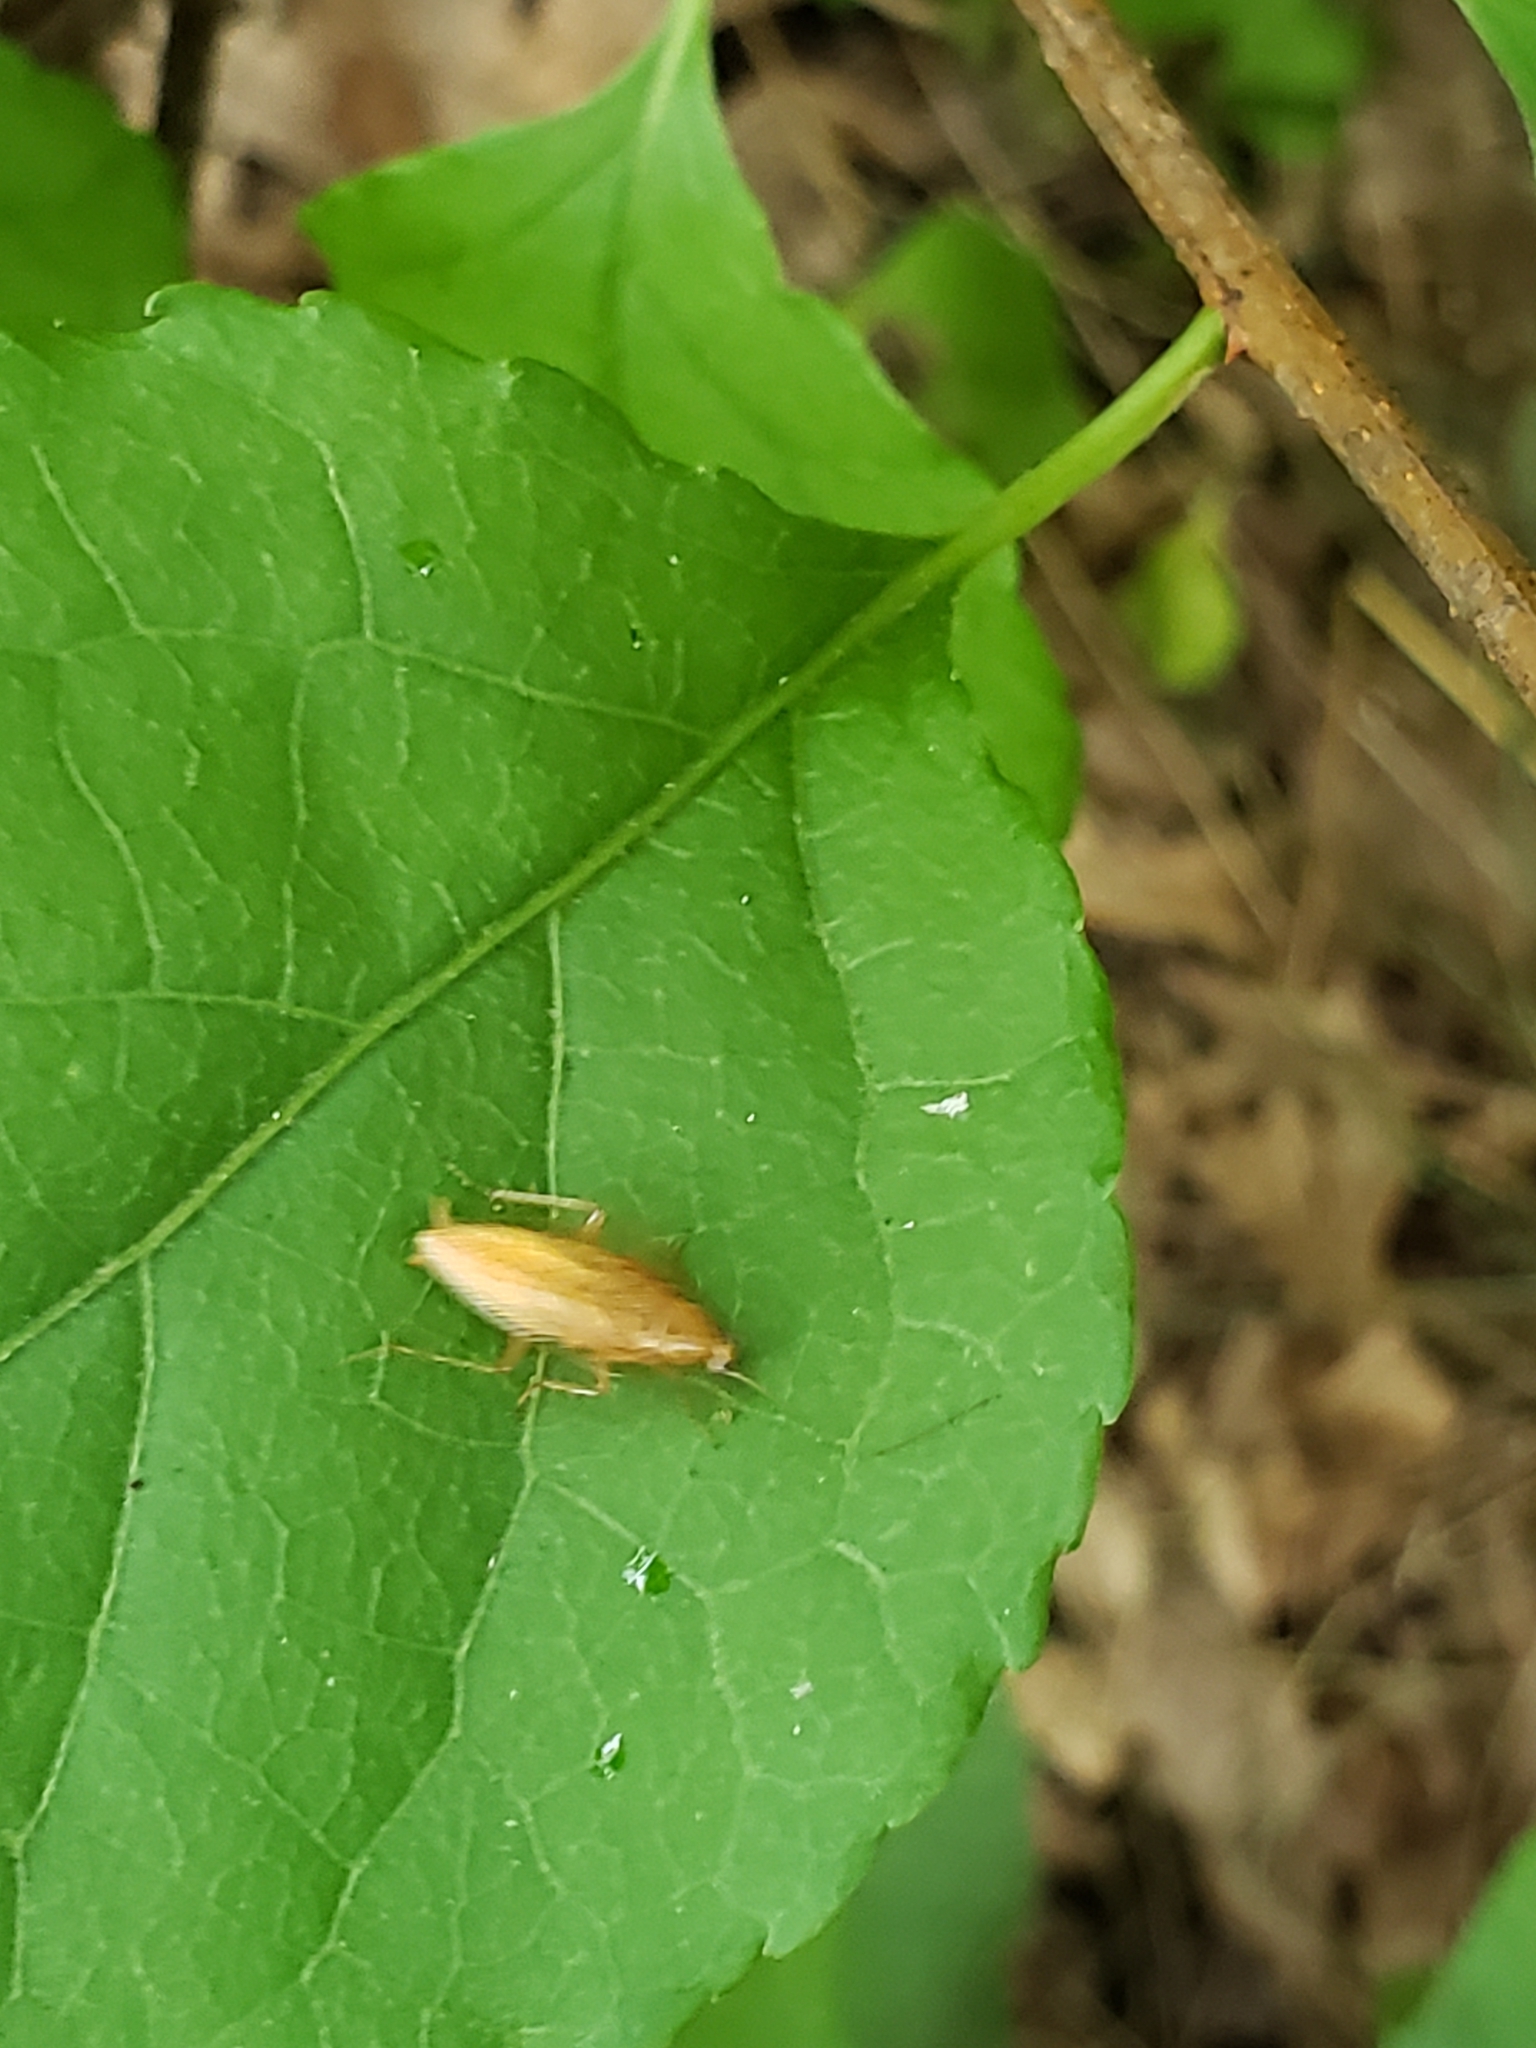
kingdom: Animalia
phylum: Arthropoda
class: Insecta
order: Blattodea
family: Ectobiidae
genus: Ectobius
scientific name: Ectobius pallidus
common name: Tawny cockroach
